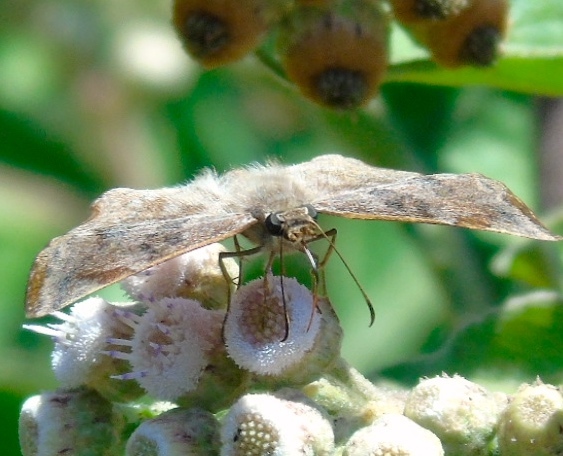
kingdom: Animalia
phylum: Arthropoda
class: Insecta
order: Lepidoptera
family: Hesperiidae
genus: Antigonus
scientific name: Antigonus erosus
